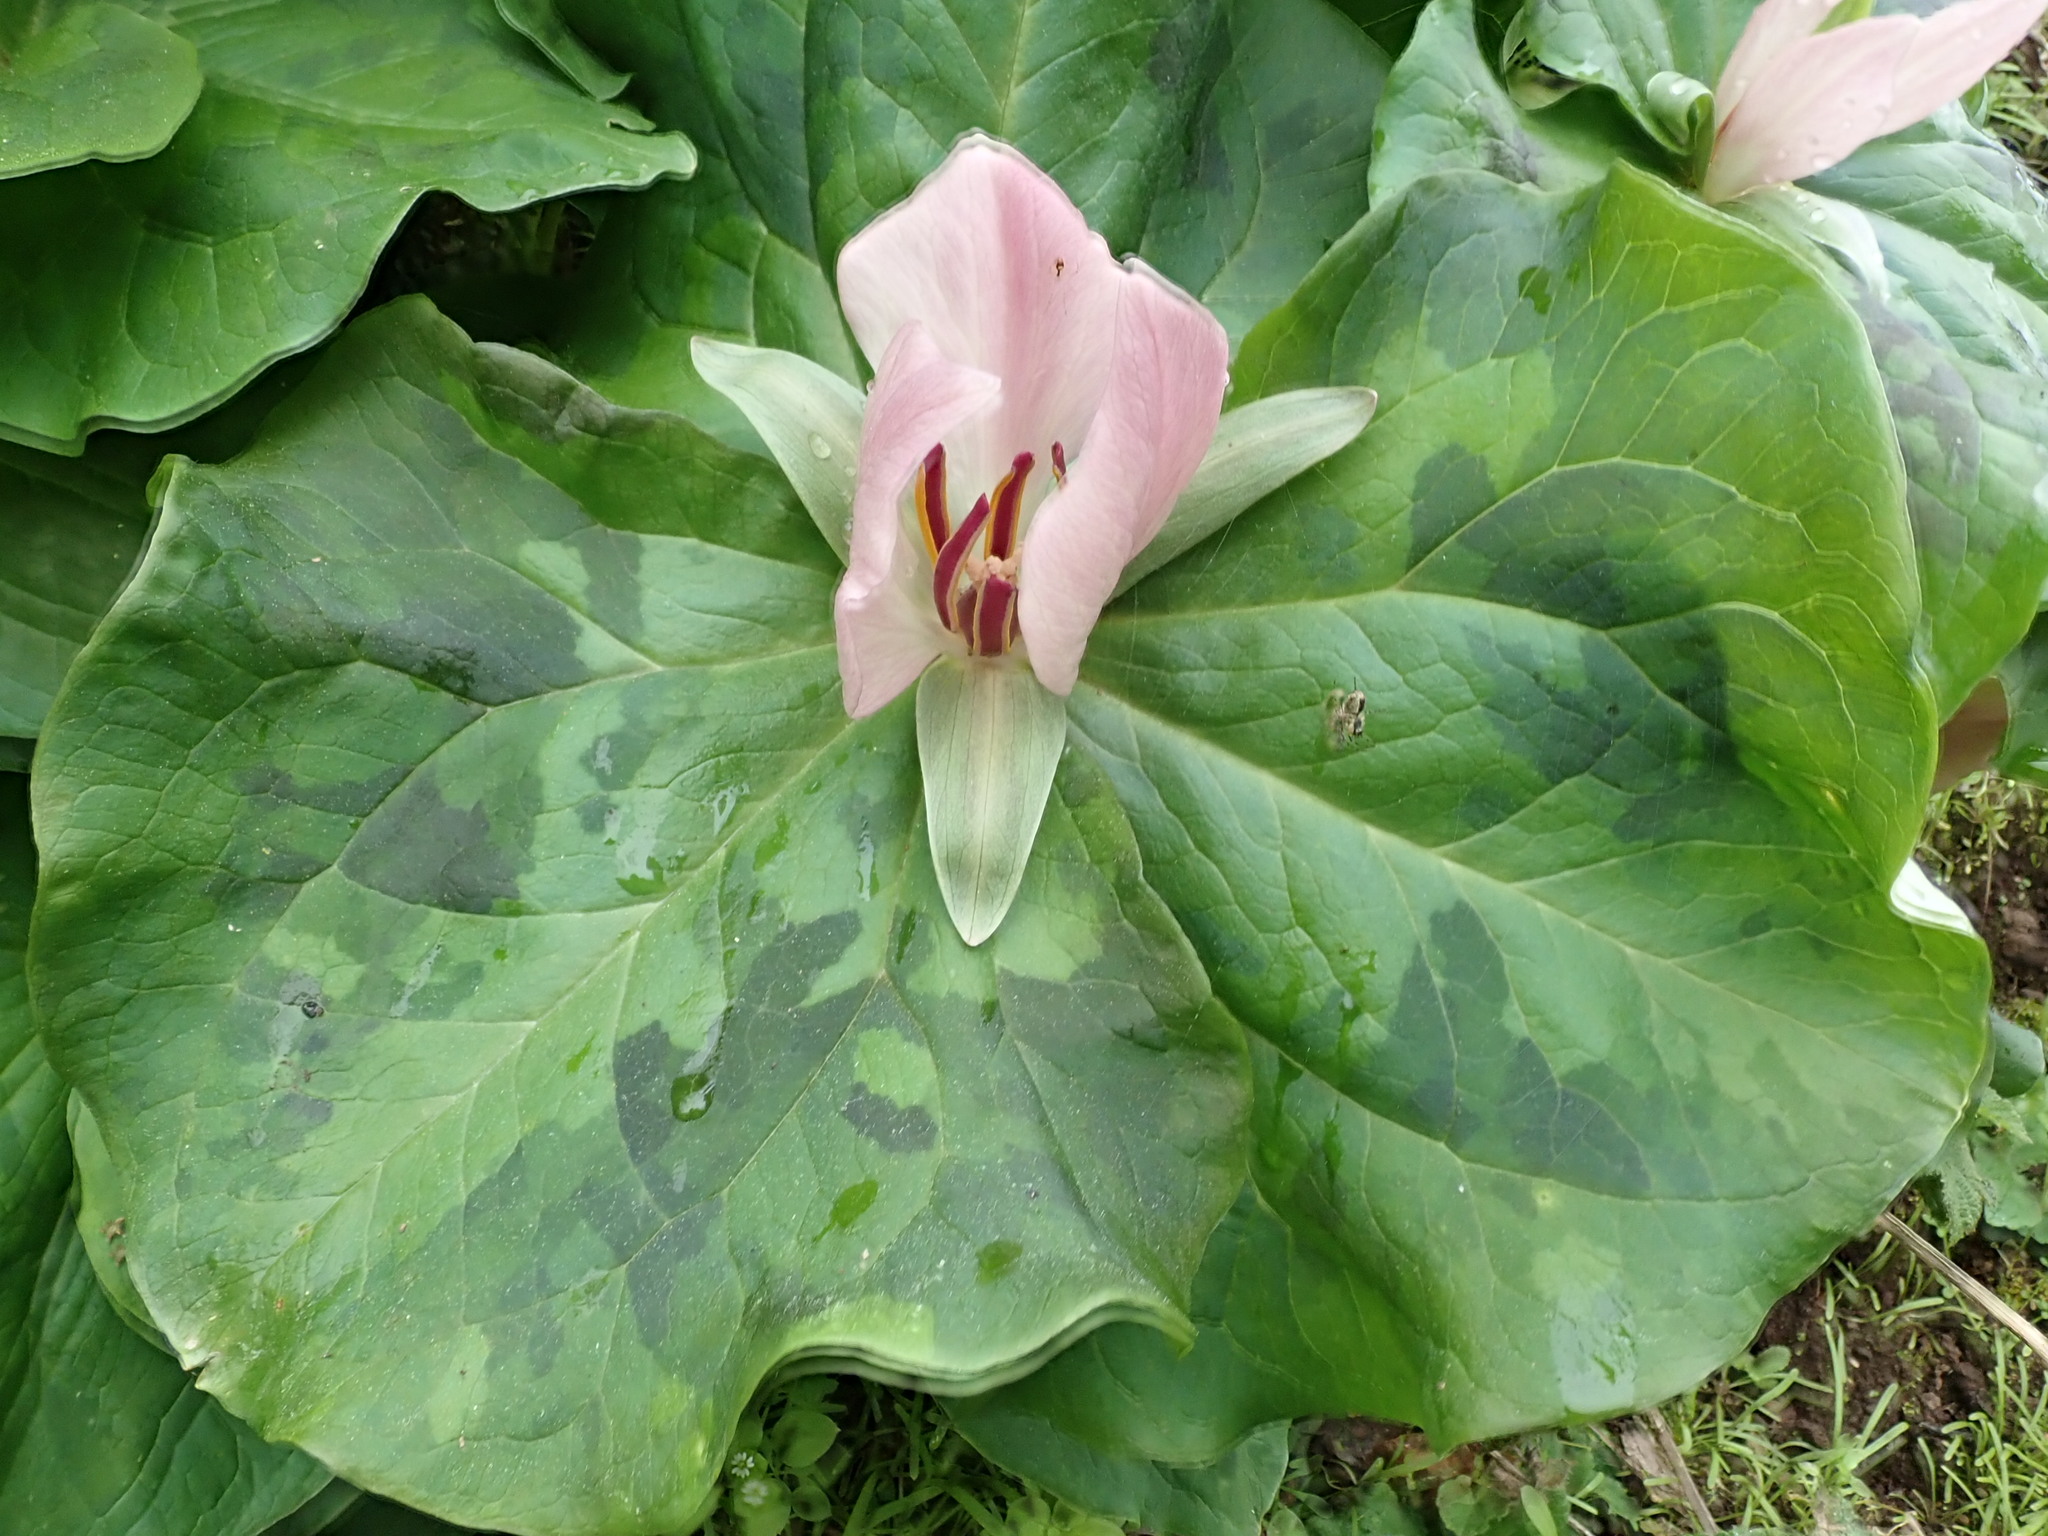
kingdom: Plantae
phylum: Tracheophyta
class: Liliopsida
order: Liliales
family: Melanthiaceae
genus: Trillium
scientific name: Trillium chloropetalum
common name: Giant trillium
